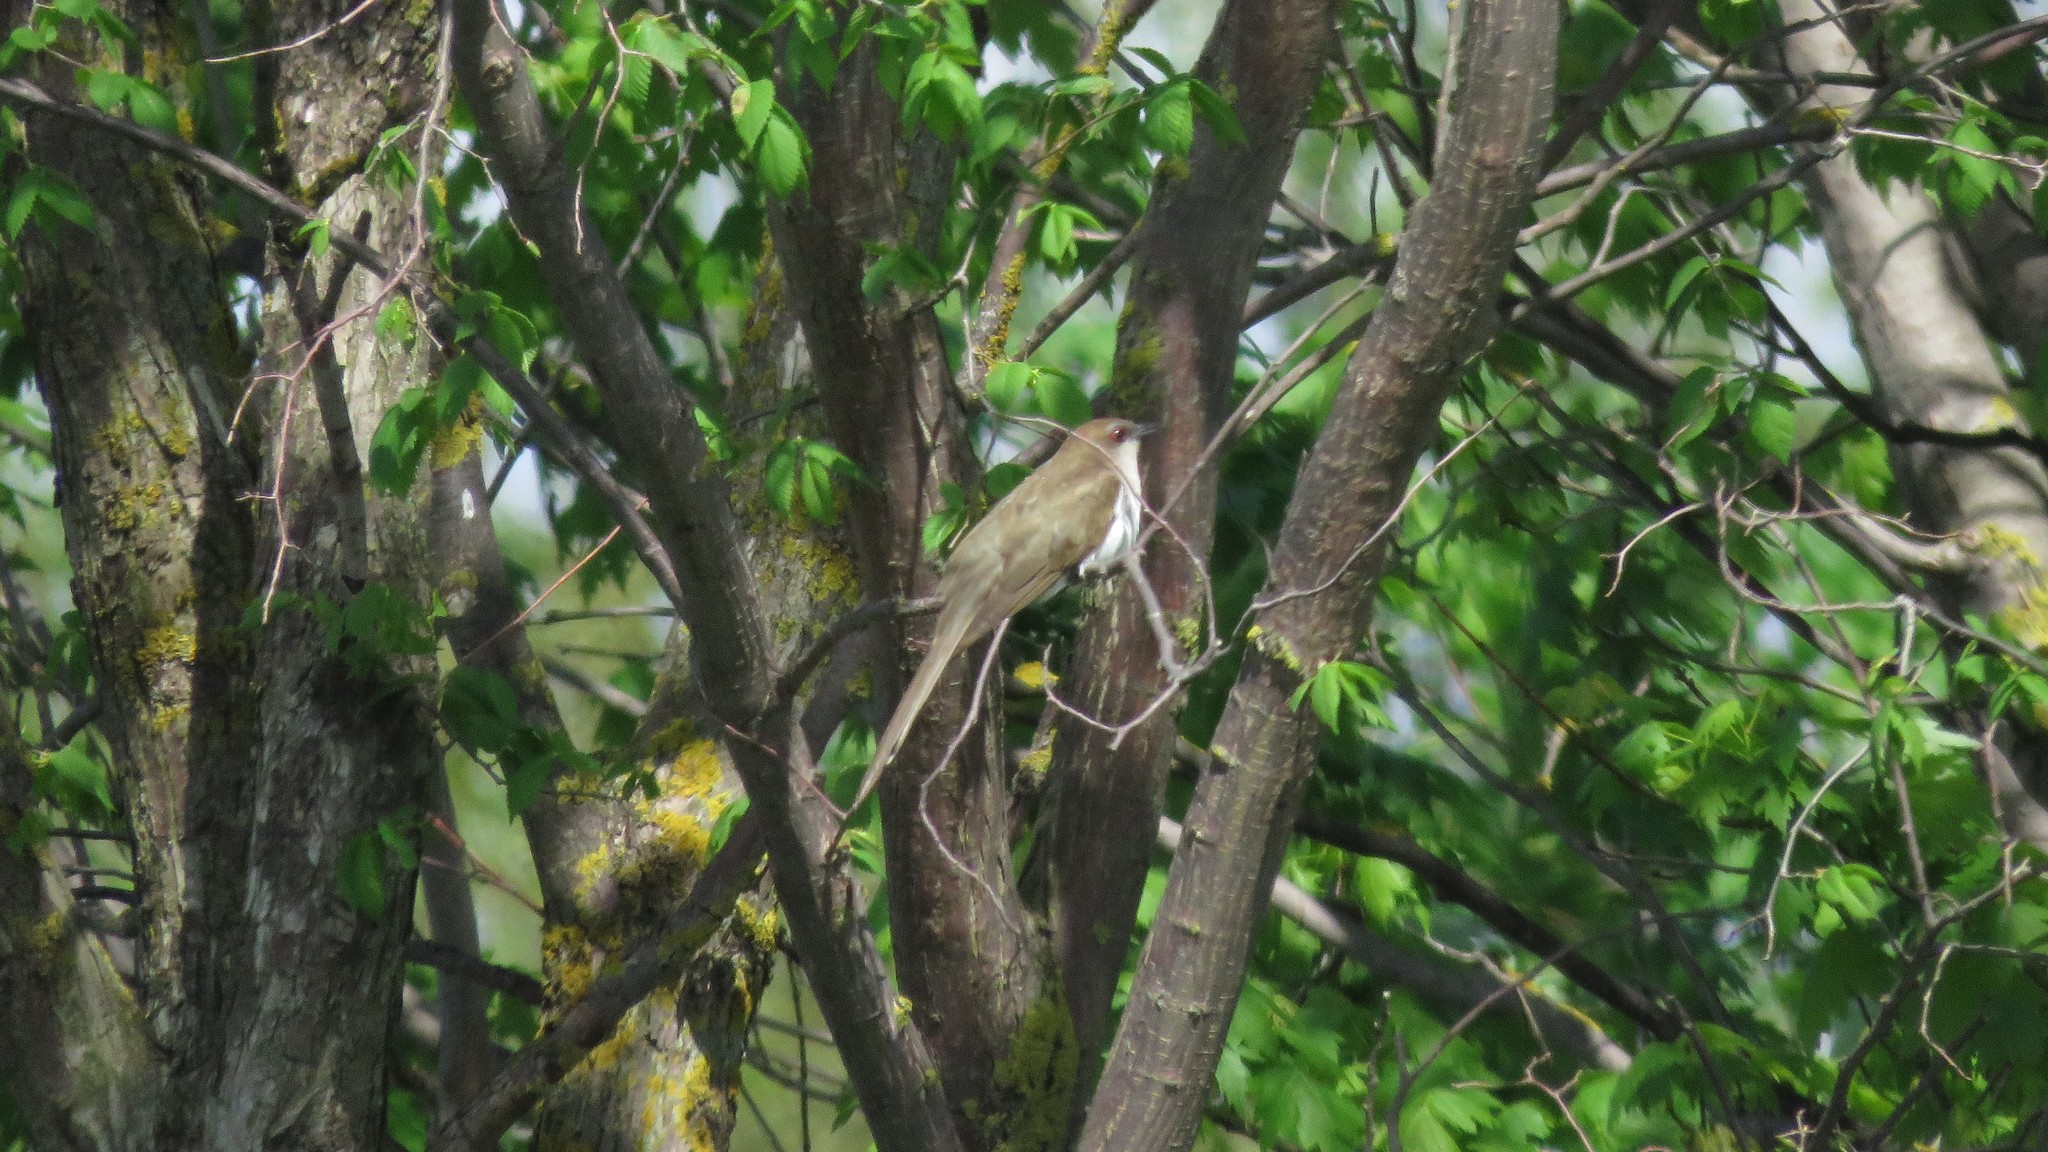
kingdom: Animalia
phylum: Chordata
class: Aves
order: Cuculiformes
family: Cuculidae
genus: Coccyzus
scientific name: Coccyzus erythropthalmus
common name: Black-billed cuckoo
